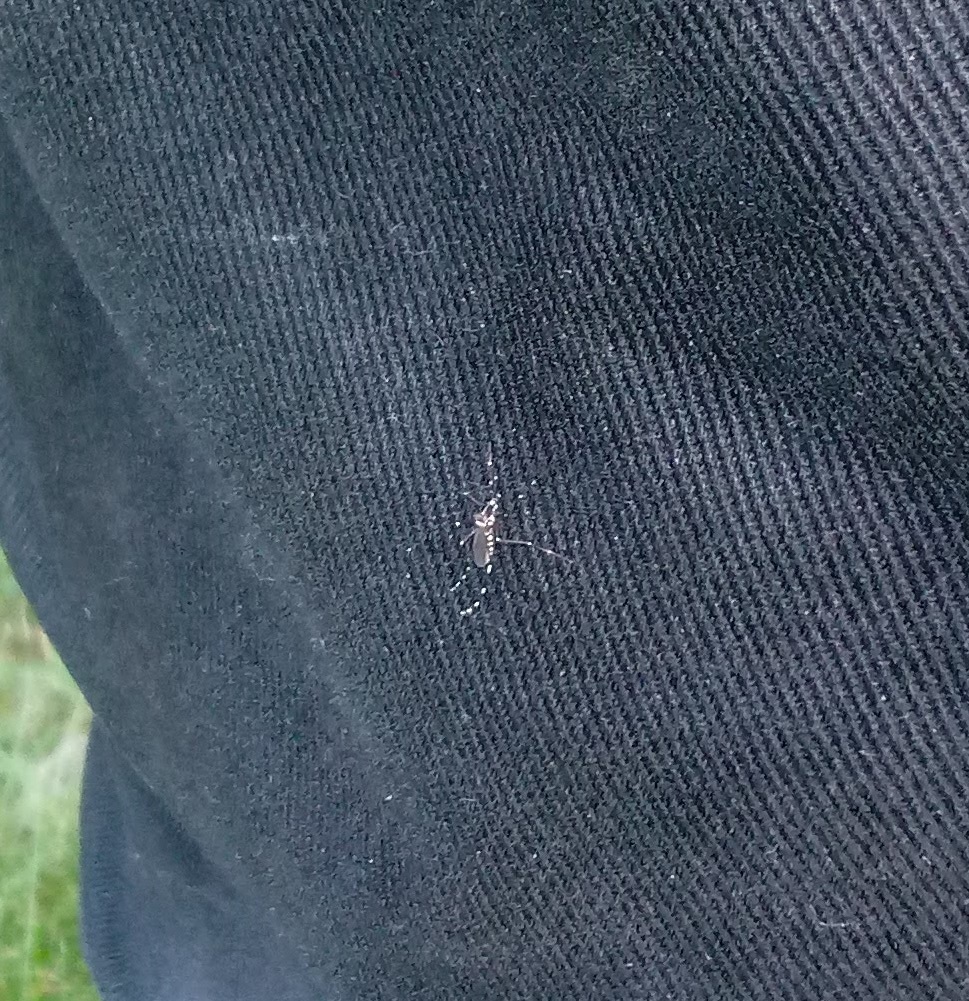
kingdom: Animalia
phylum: Arthropoda
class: Insecta
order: Diptera
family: Culicidae
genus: Aedes
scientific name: Aedes albopictus
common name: Tiger mosquito
